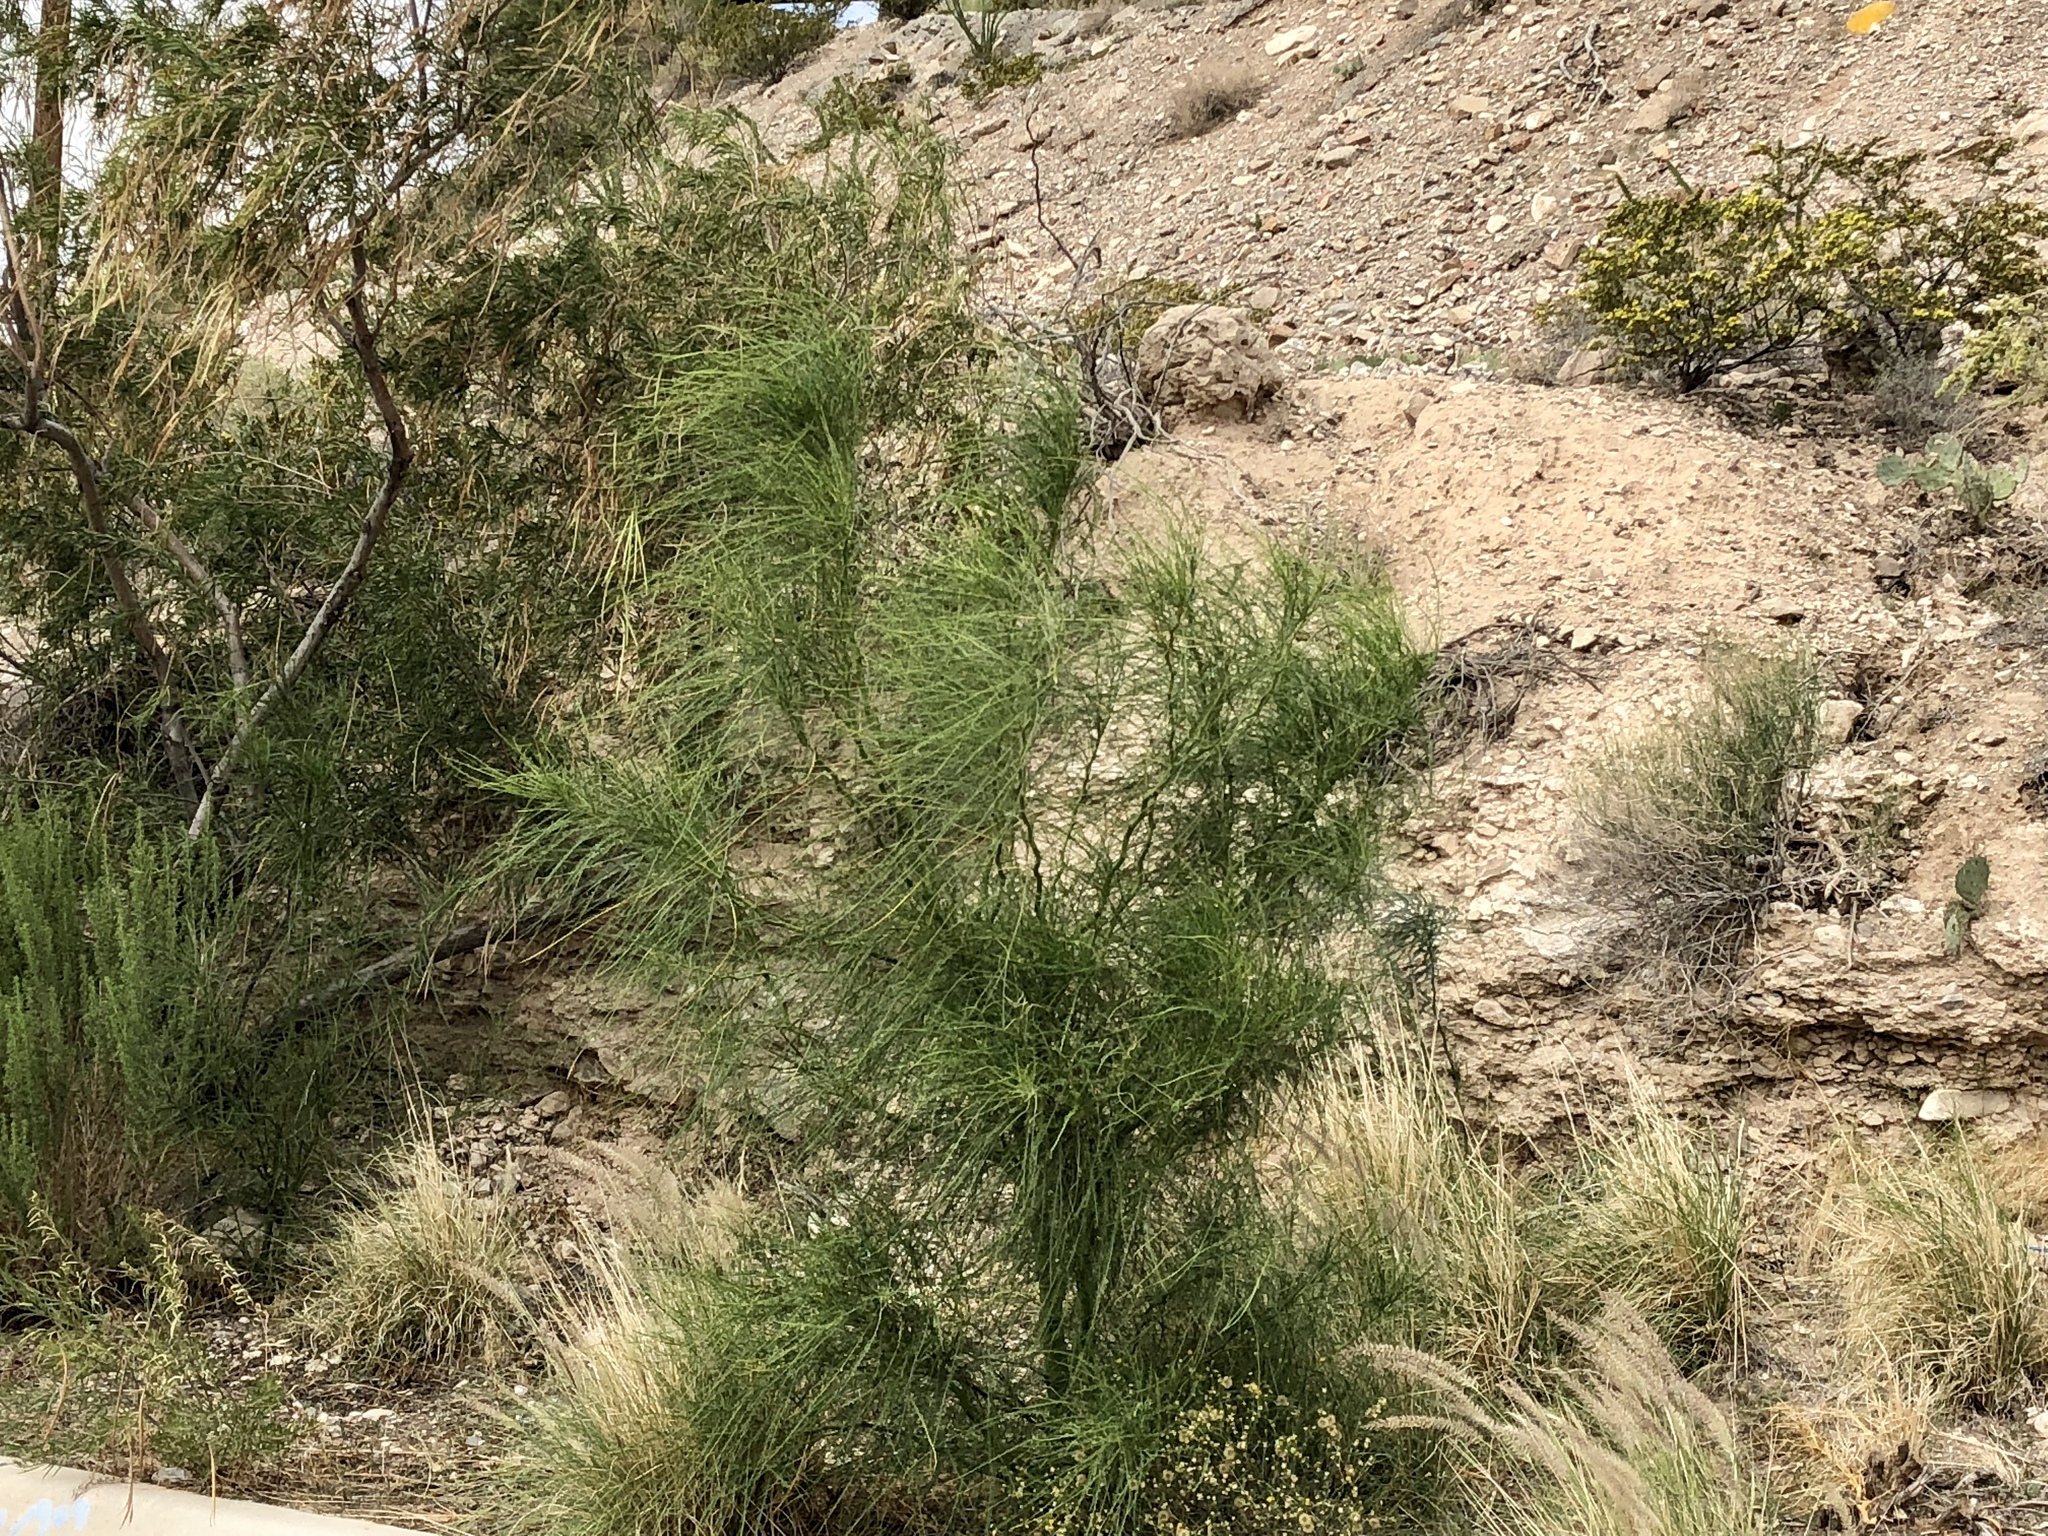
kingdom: Plantae
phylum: Tracheophyta
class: Magnoliopsida
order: Fabales
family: Fabaceae
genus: Parkinsonia
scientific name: Parkinsonia aculeata
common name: Jerusalem thorn
